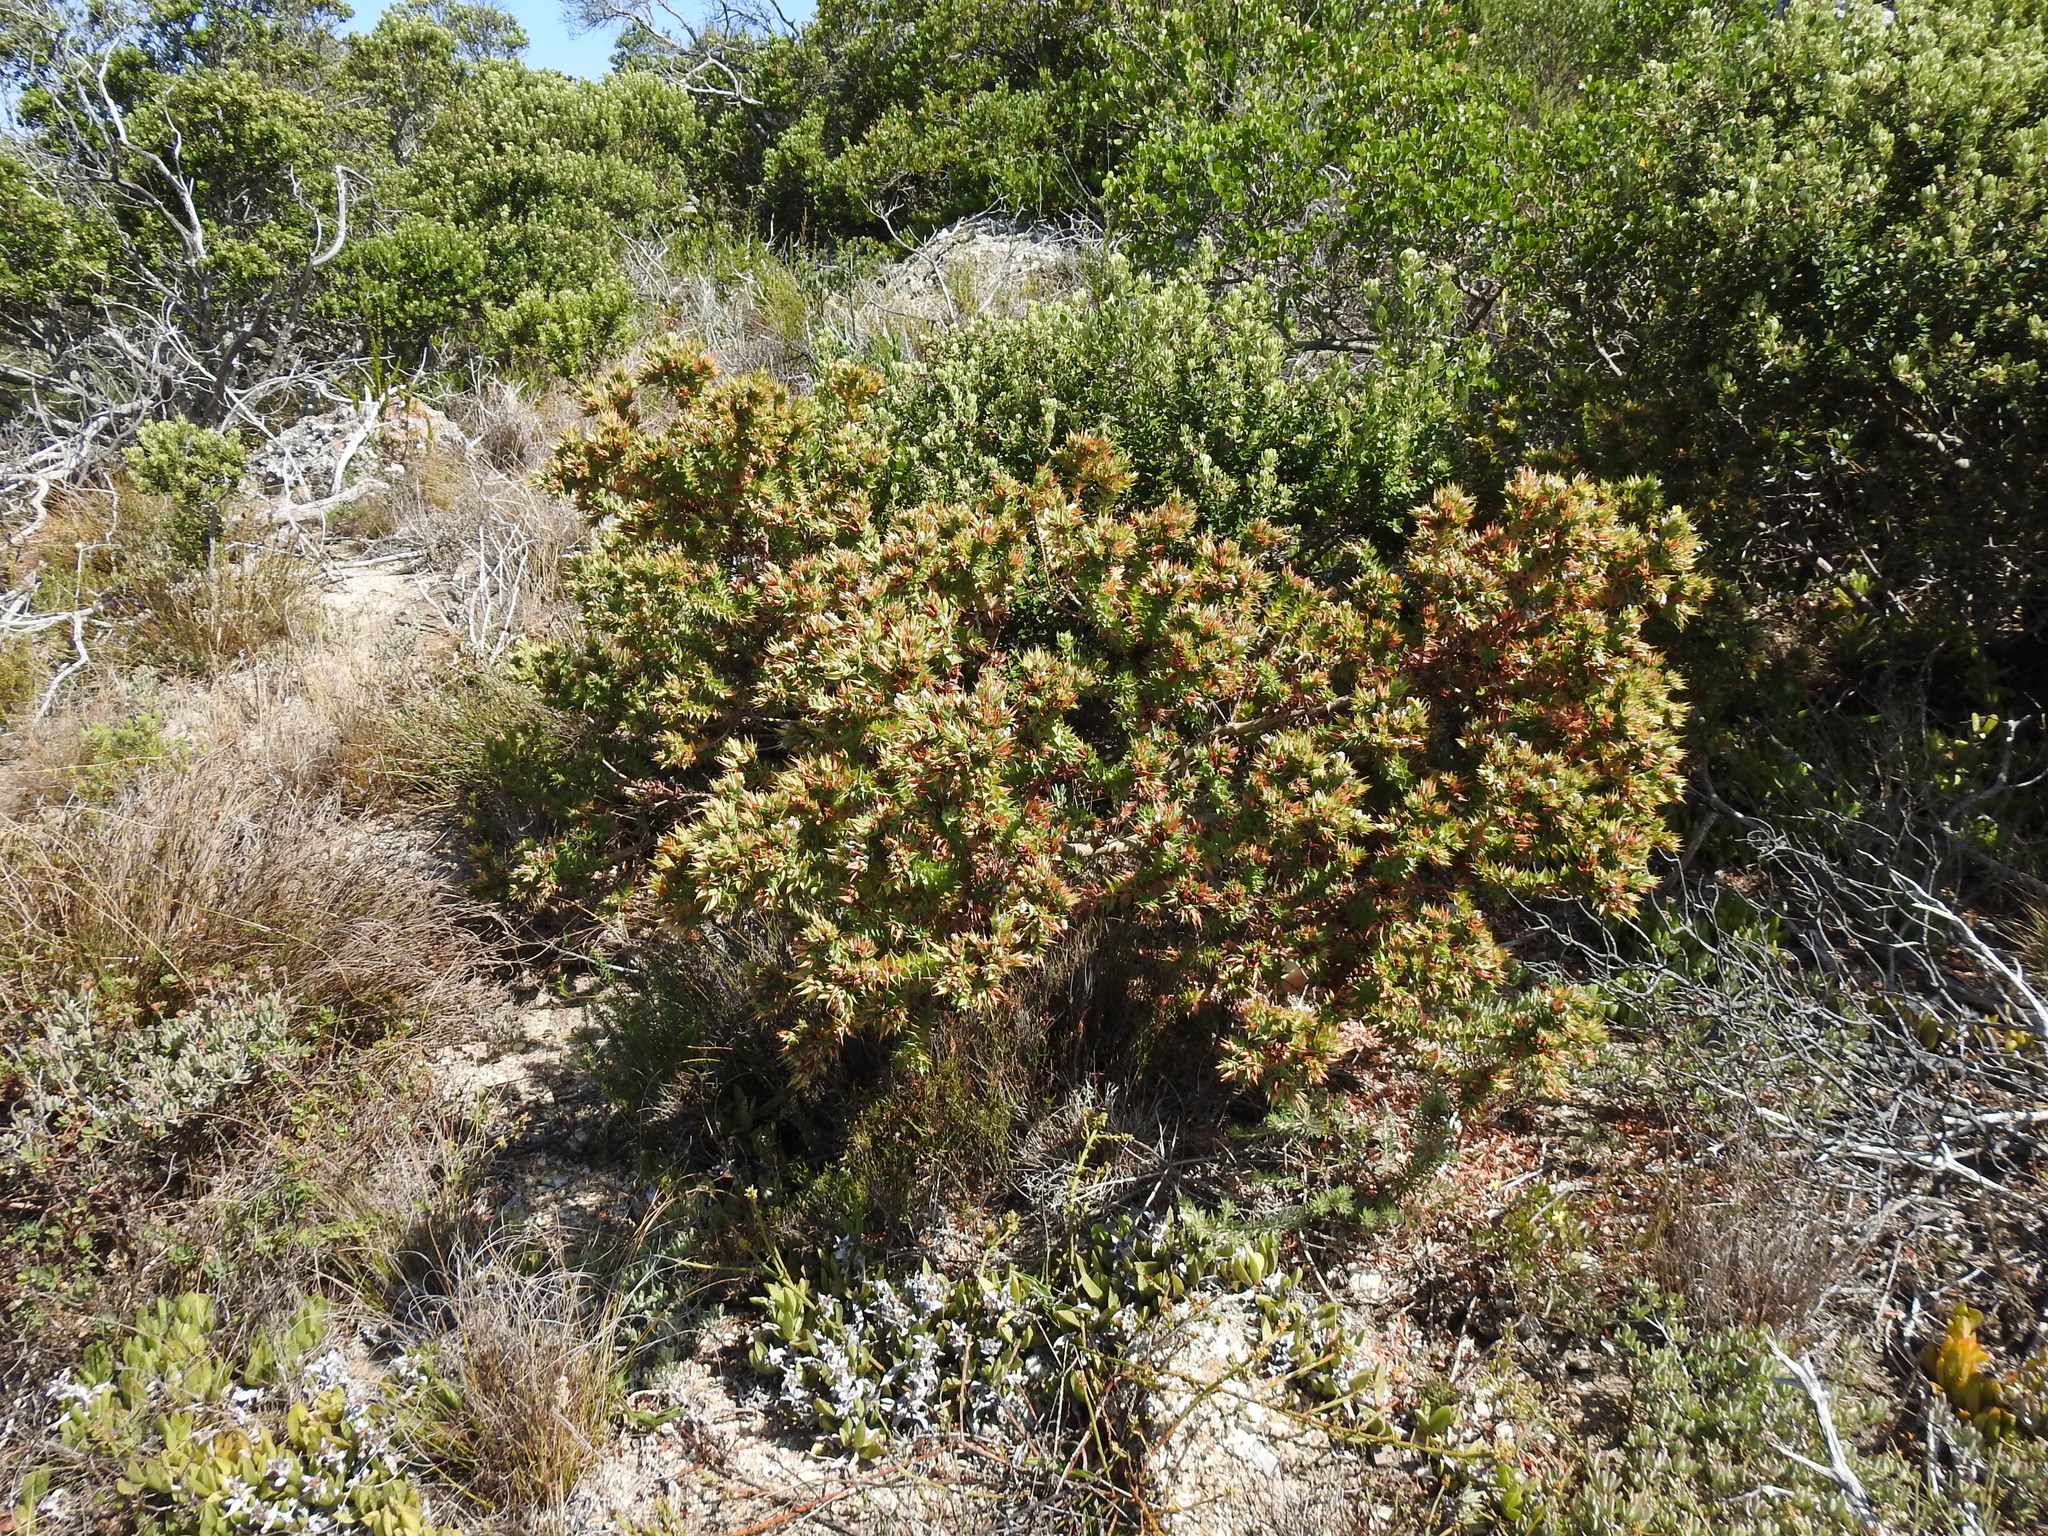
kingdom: Plantae
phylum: Tracheophyta
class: Magnoliopsida
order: Fabales
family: Fabaceae
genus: Aspalathus
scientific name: Aspalathus cordata
